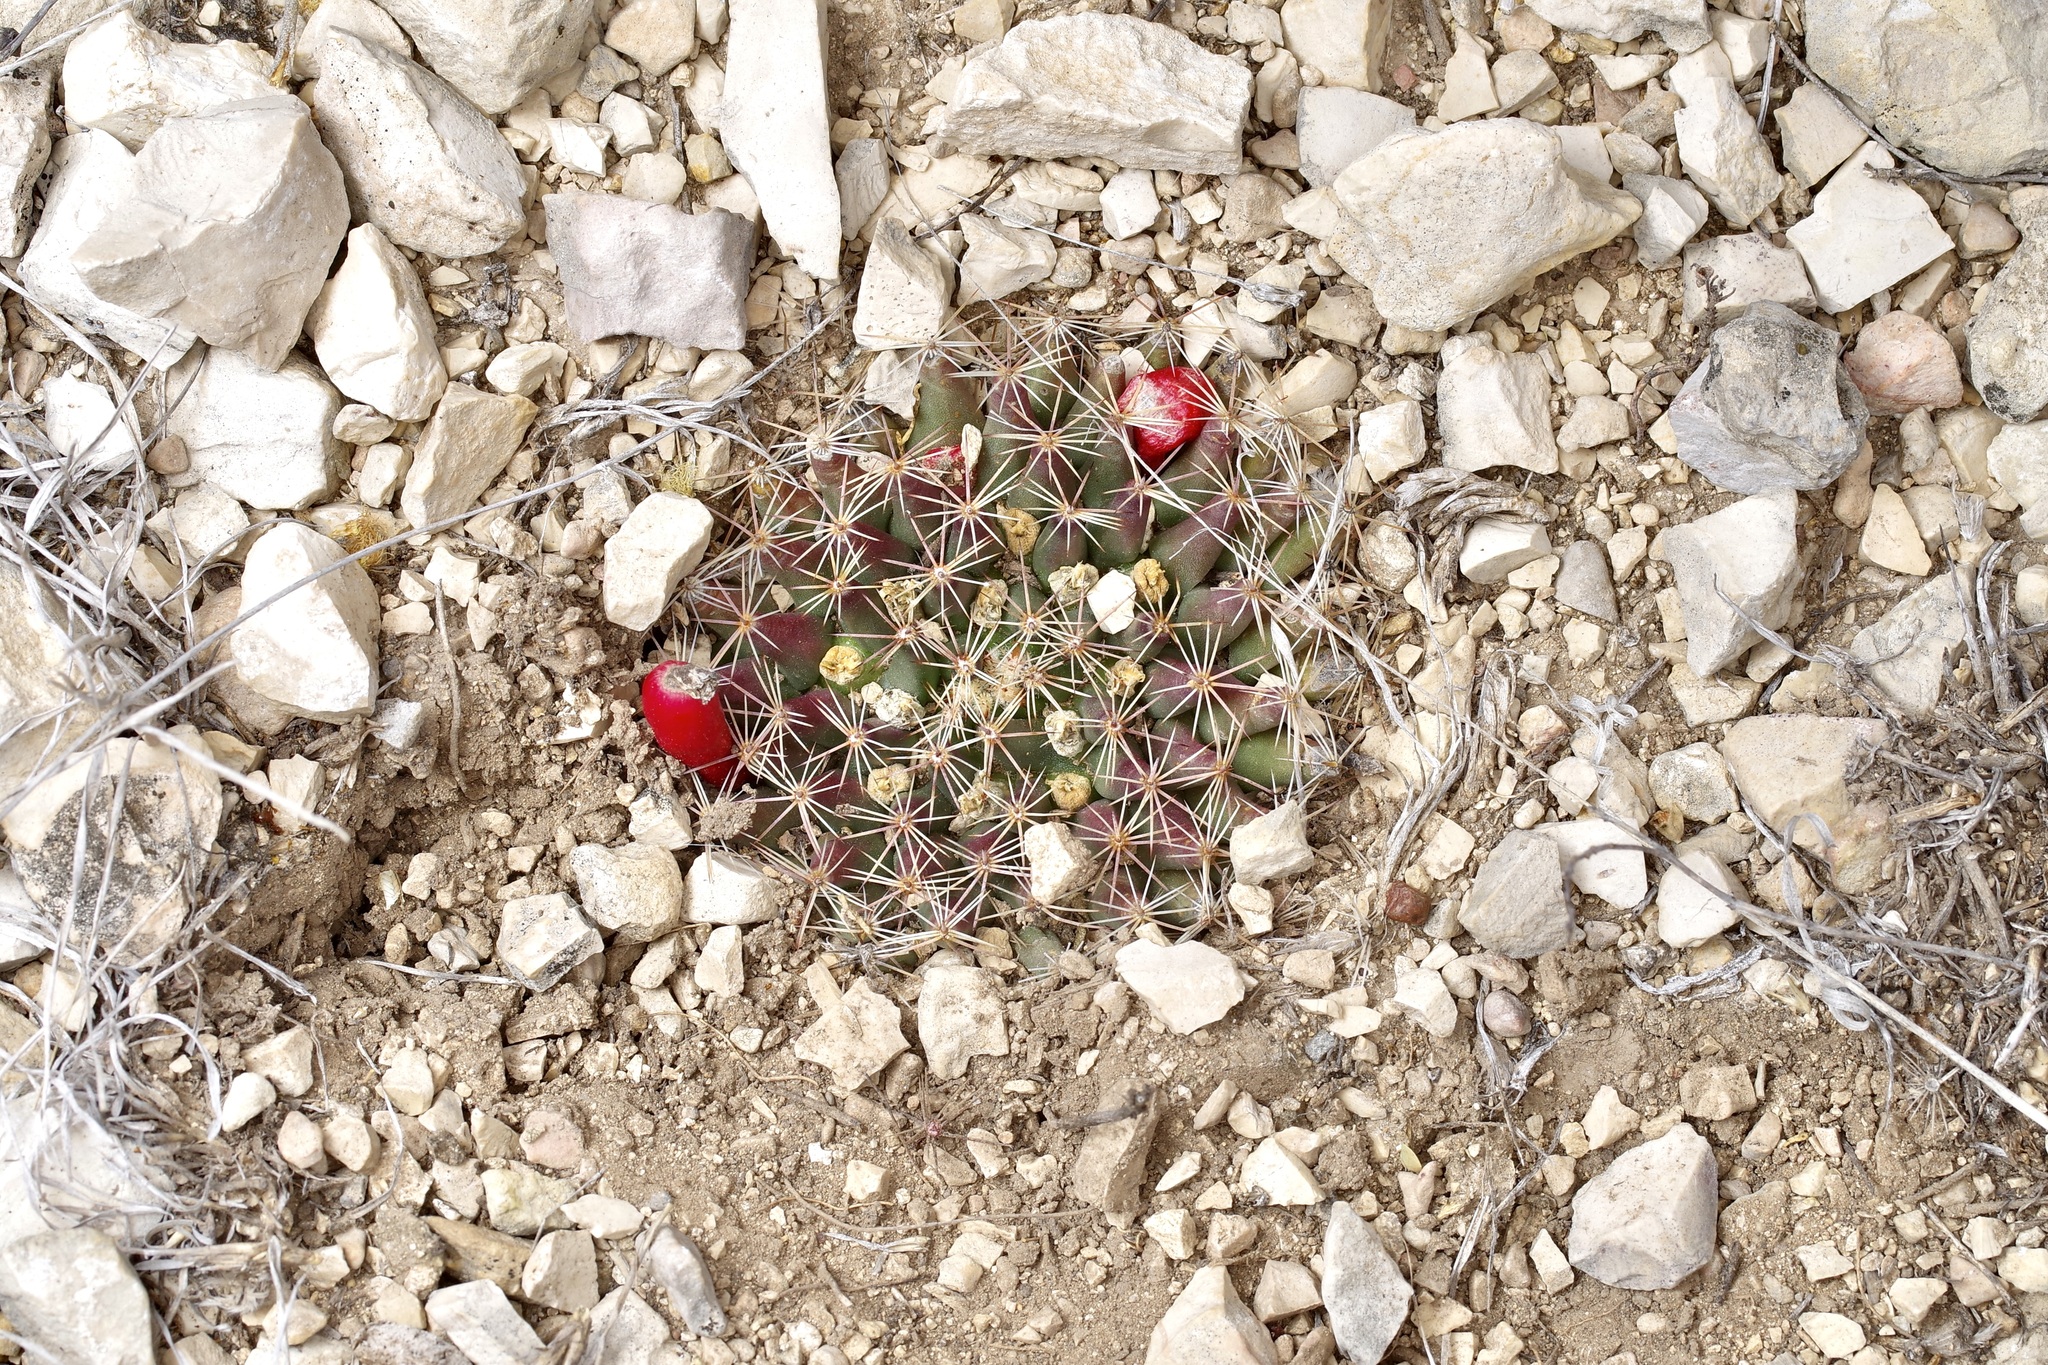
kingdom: Plantae
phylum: Tracheophyta
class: Magnoliopsida
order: Caryophyllales
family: Cactaceae
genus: Mammillaria
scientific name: Mammillaria heyderi
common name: Little nipple cactus
